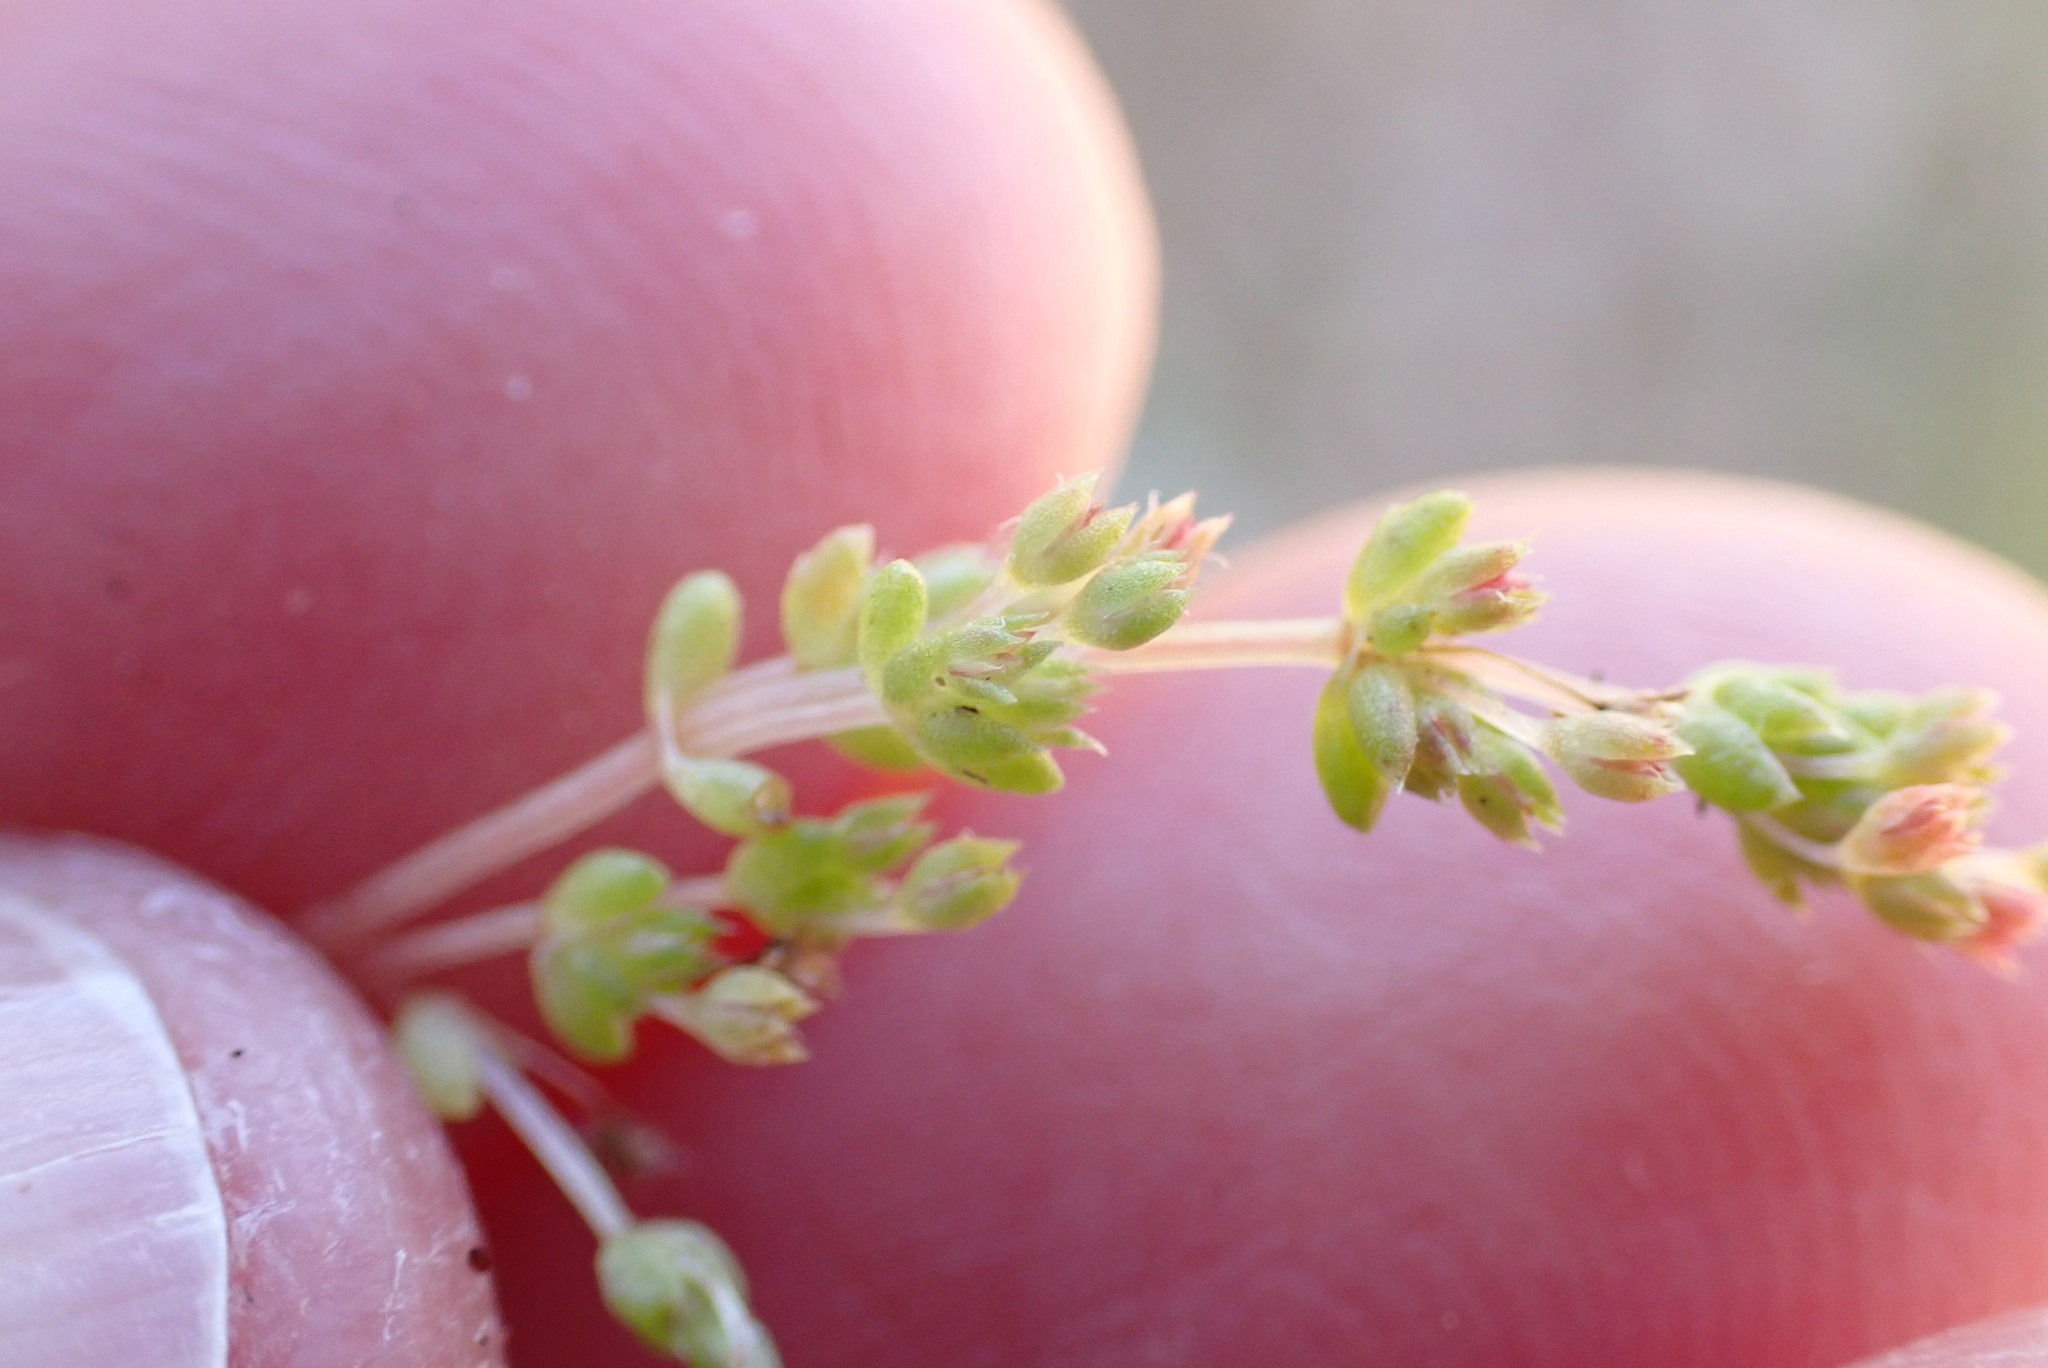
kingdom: Plantae
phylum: Tracheophyta
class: Magnoliopsida
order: Saxifragales
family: Crassulaceae
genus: Crassula
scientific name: Crassula connata
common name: Erect pygmyweed
